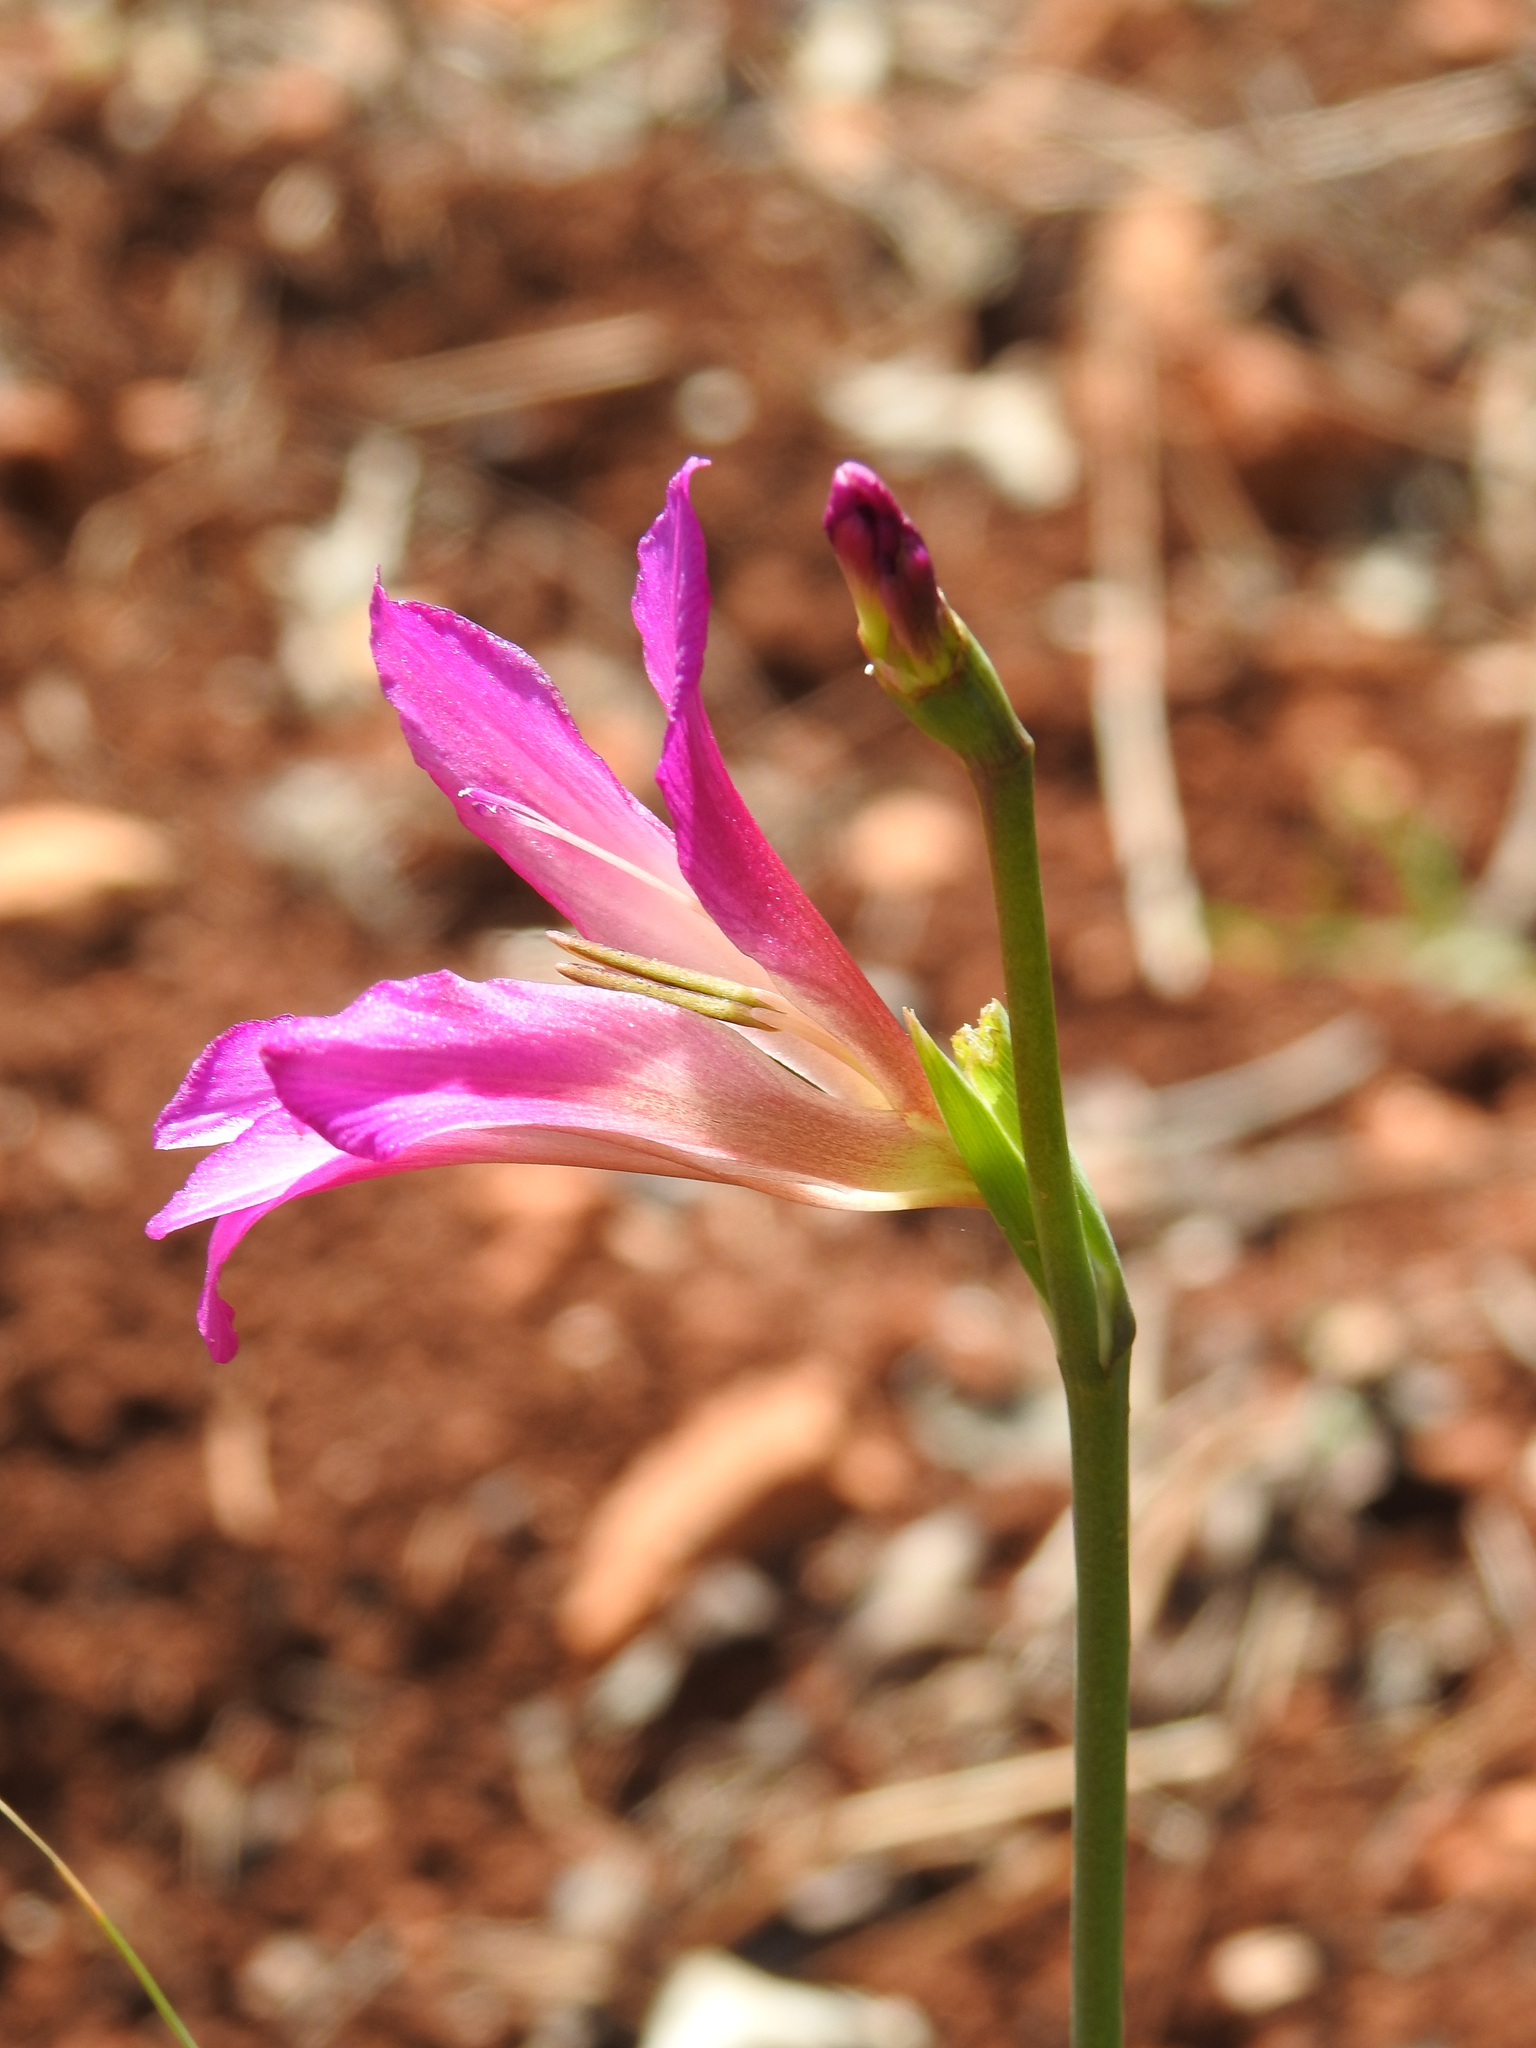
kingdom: Plantae
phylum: Tracheophyta
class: Liliopsida
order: Asparagales
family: Iridaceae
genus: Gladiolus
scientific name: Gladiolus italicus
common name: Field gladiolus
